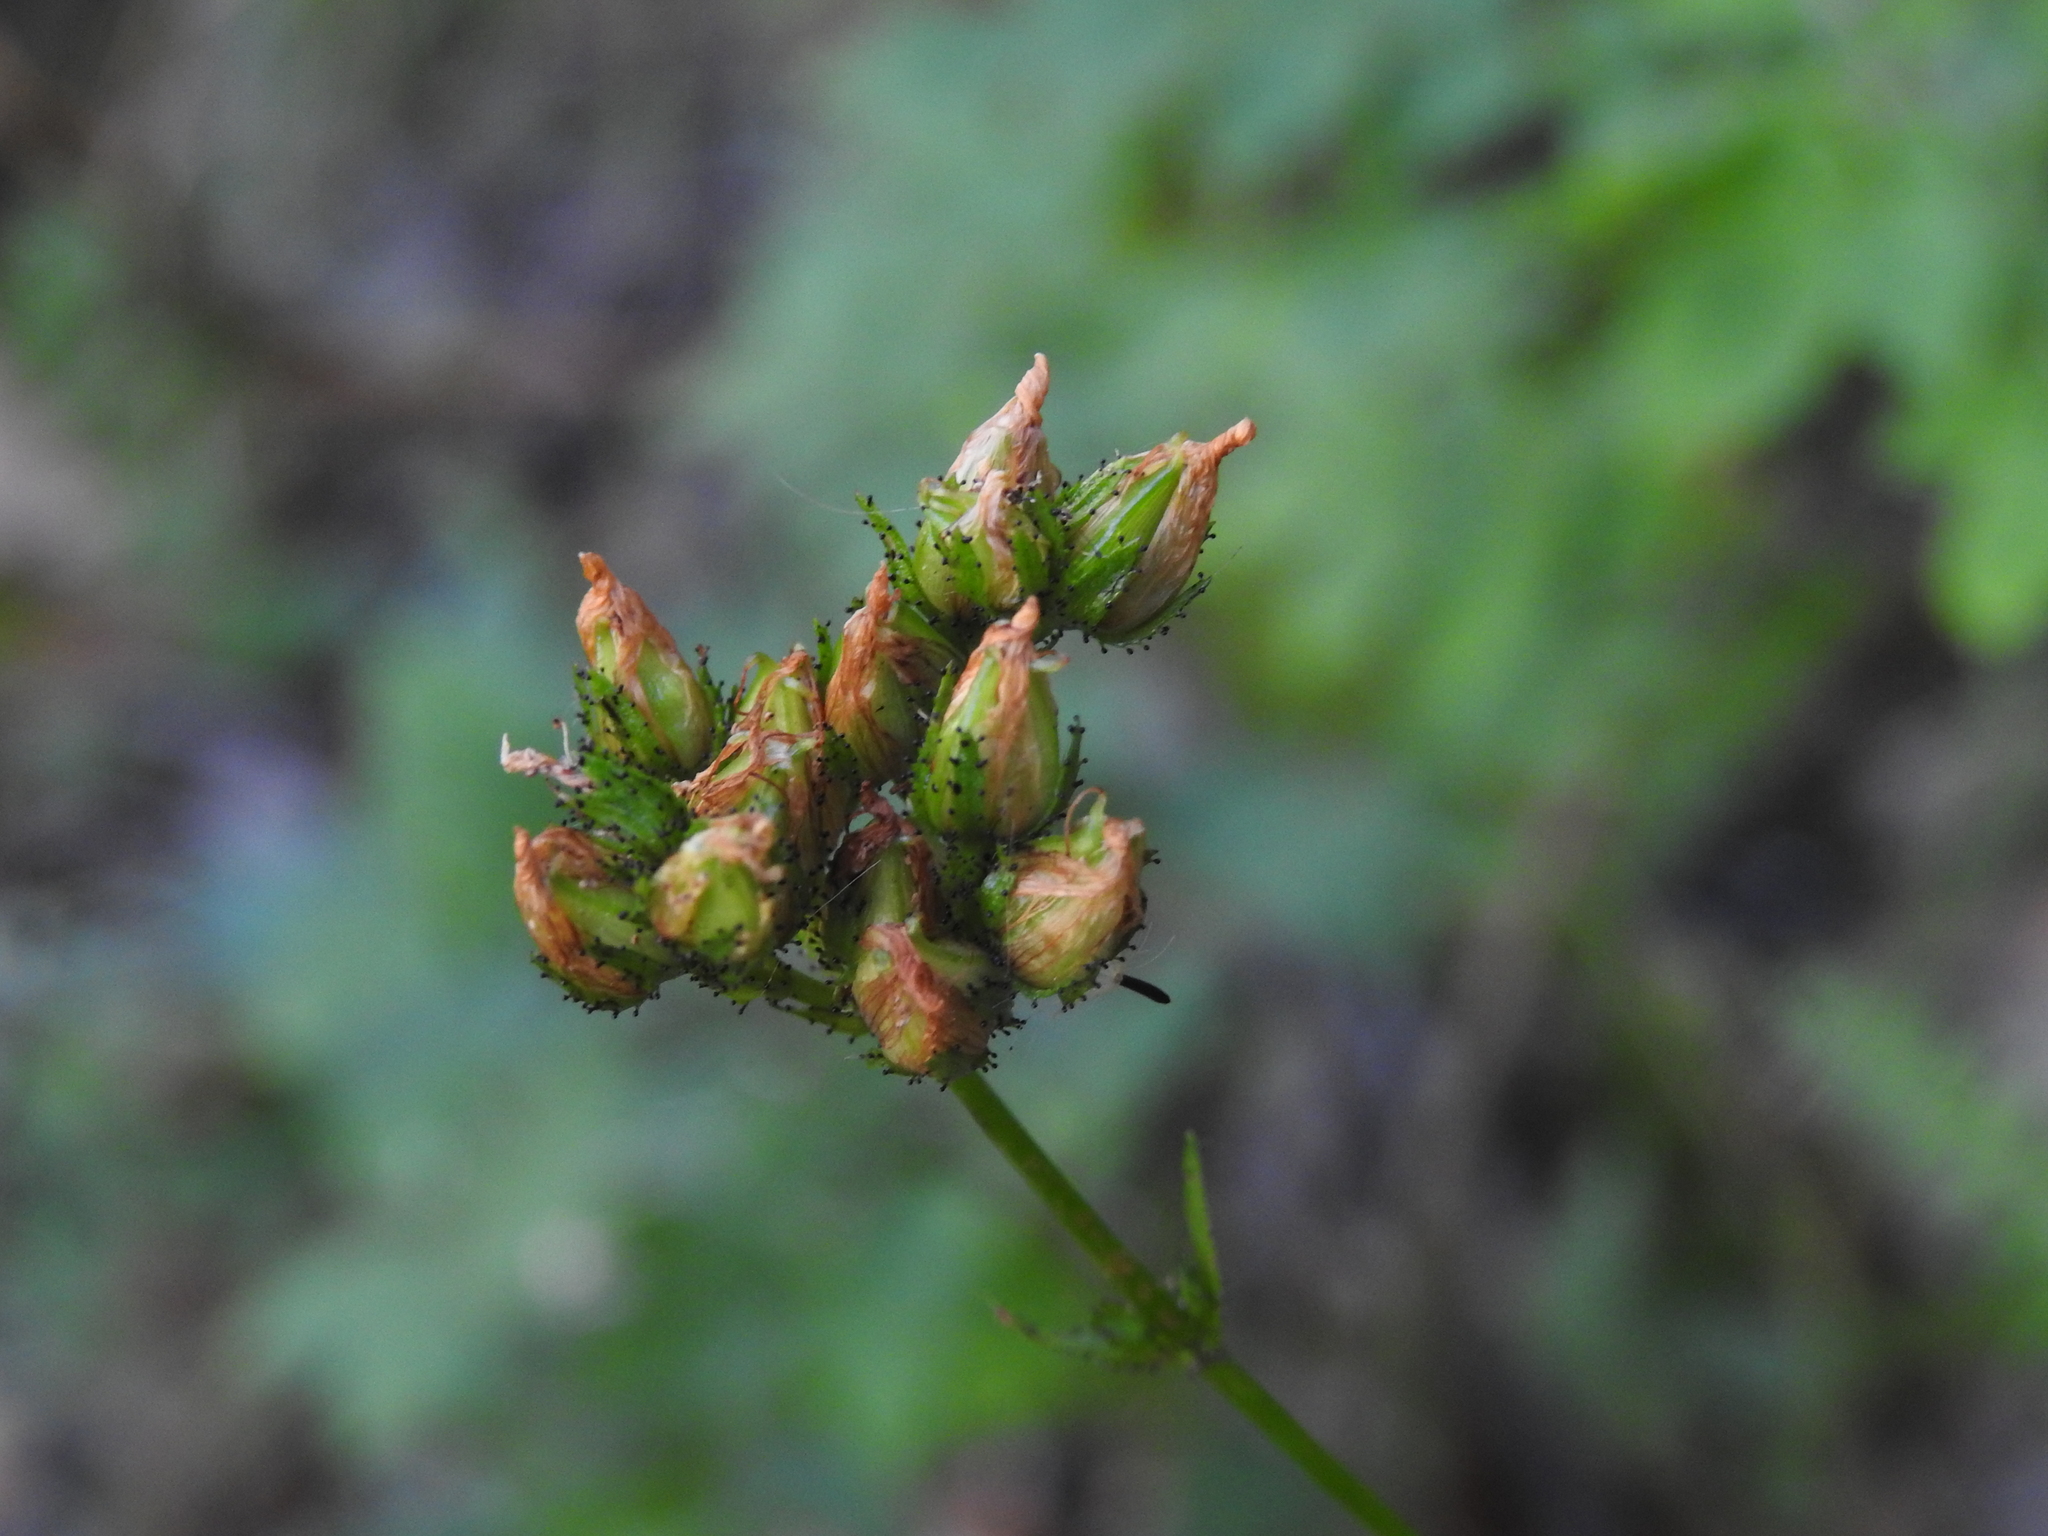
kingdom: Plantae
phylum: Tracheophyta
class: Magnoliopsida
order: Malpighiales
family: Hypericaceae
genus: Hypericum
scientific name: Hypericum montanum
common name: Pale st. john's-wort
